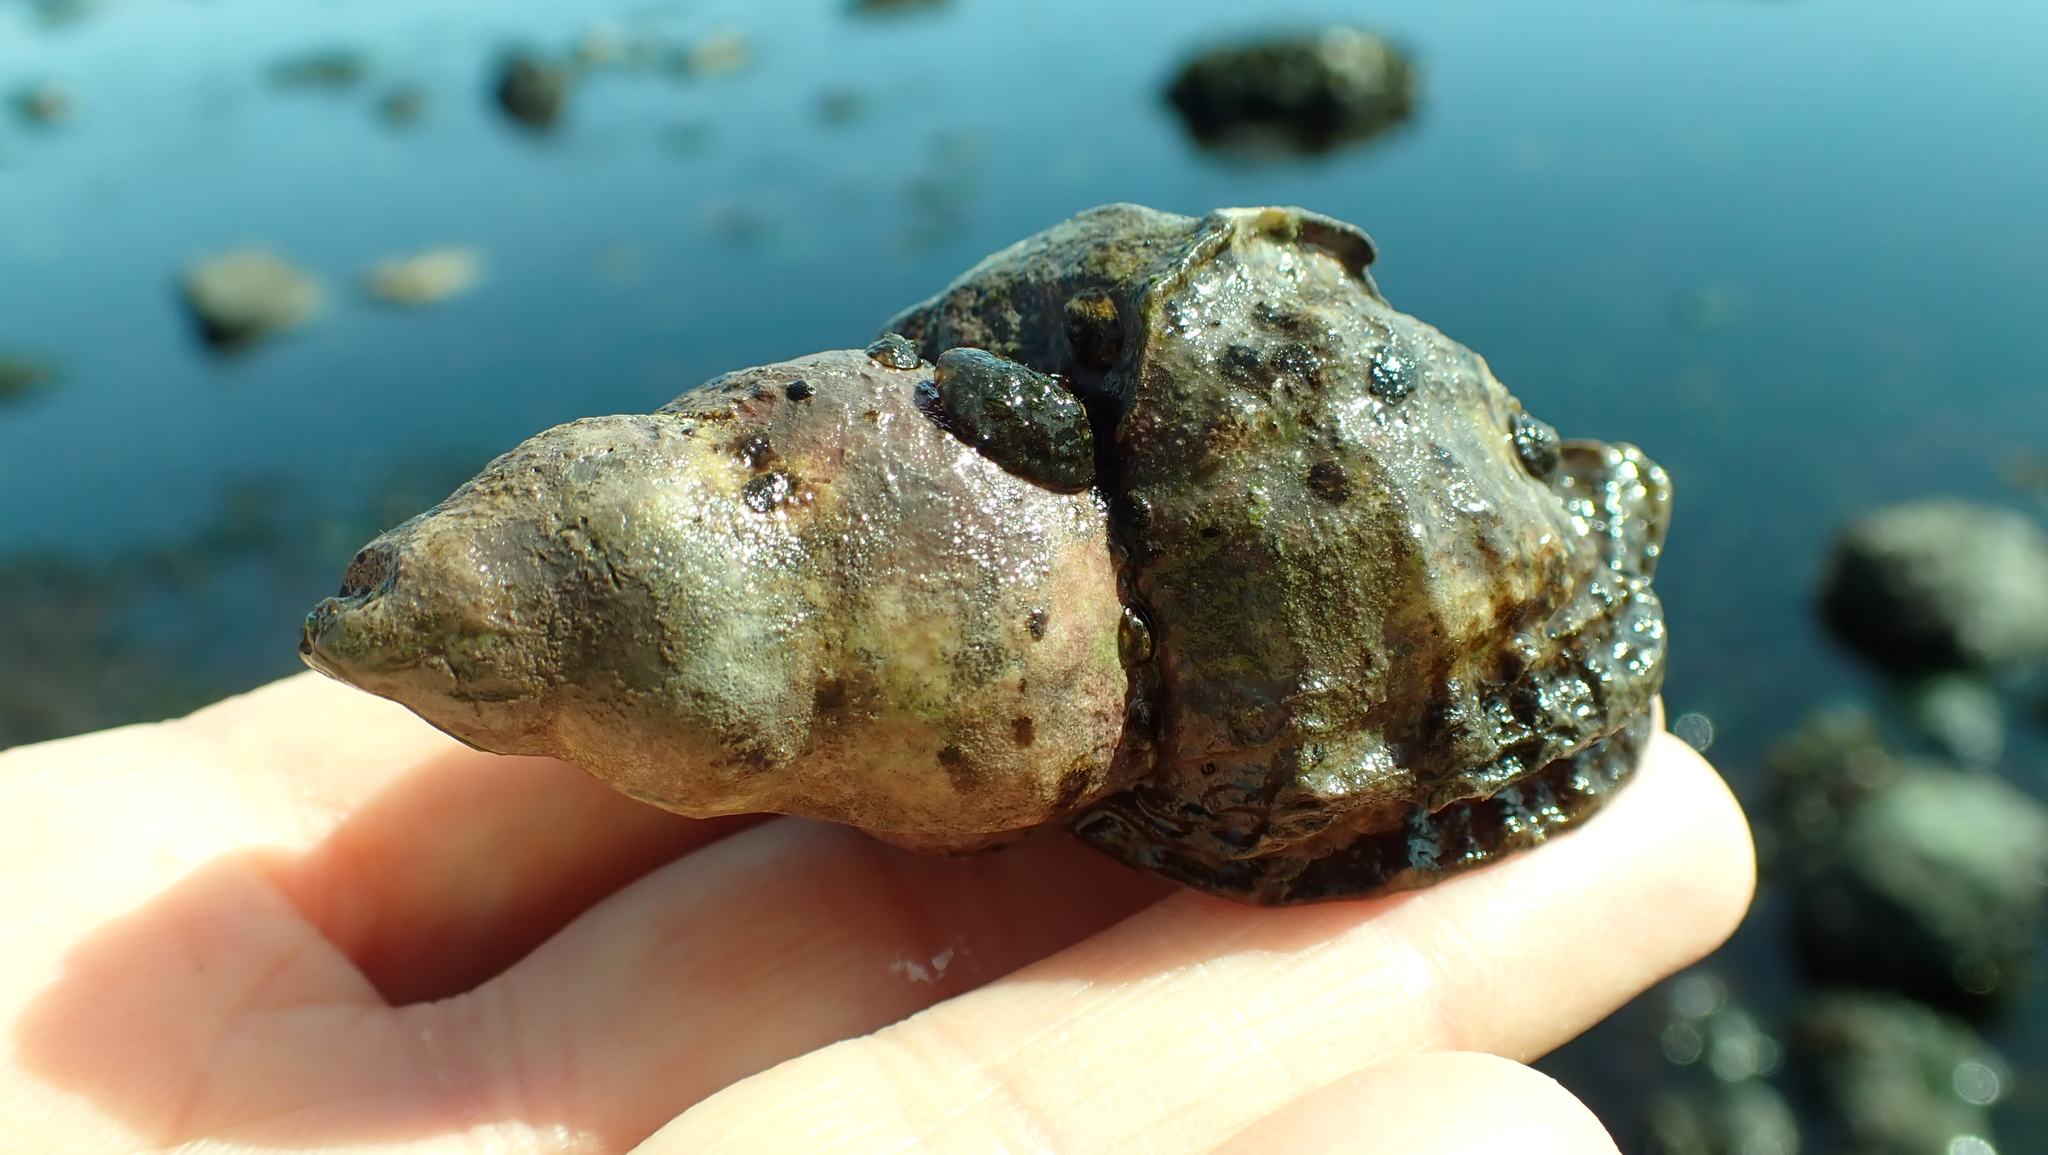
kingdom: Animalia
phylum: Mollusca
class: Gastropoda
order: Neogastropoda
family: Muricidae
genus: Nucella
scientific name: Nucella lamellosa
